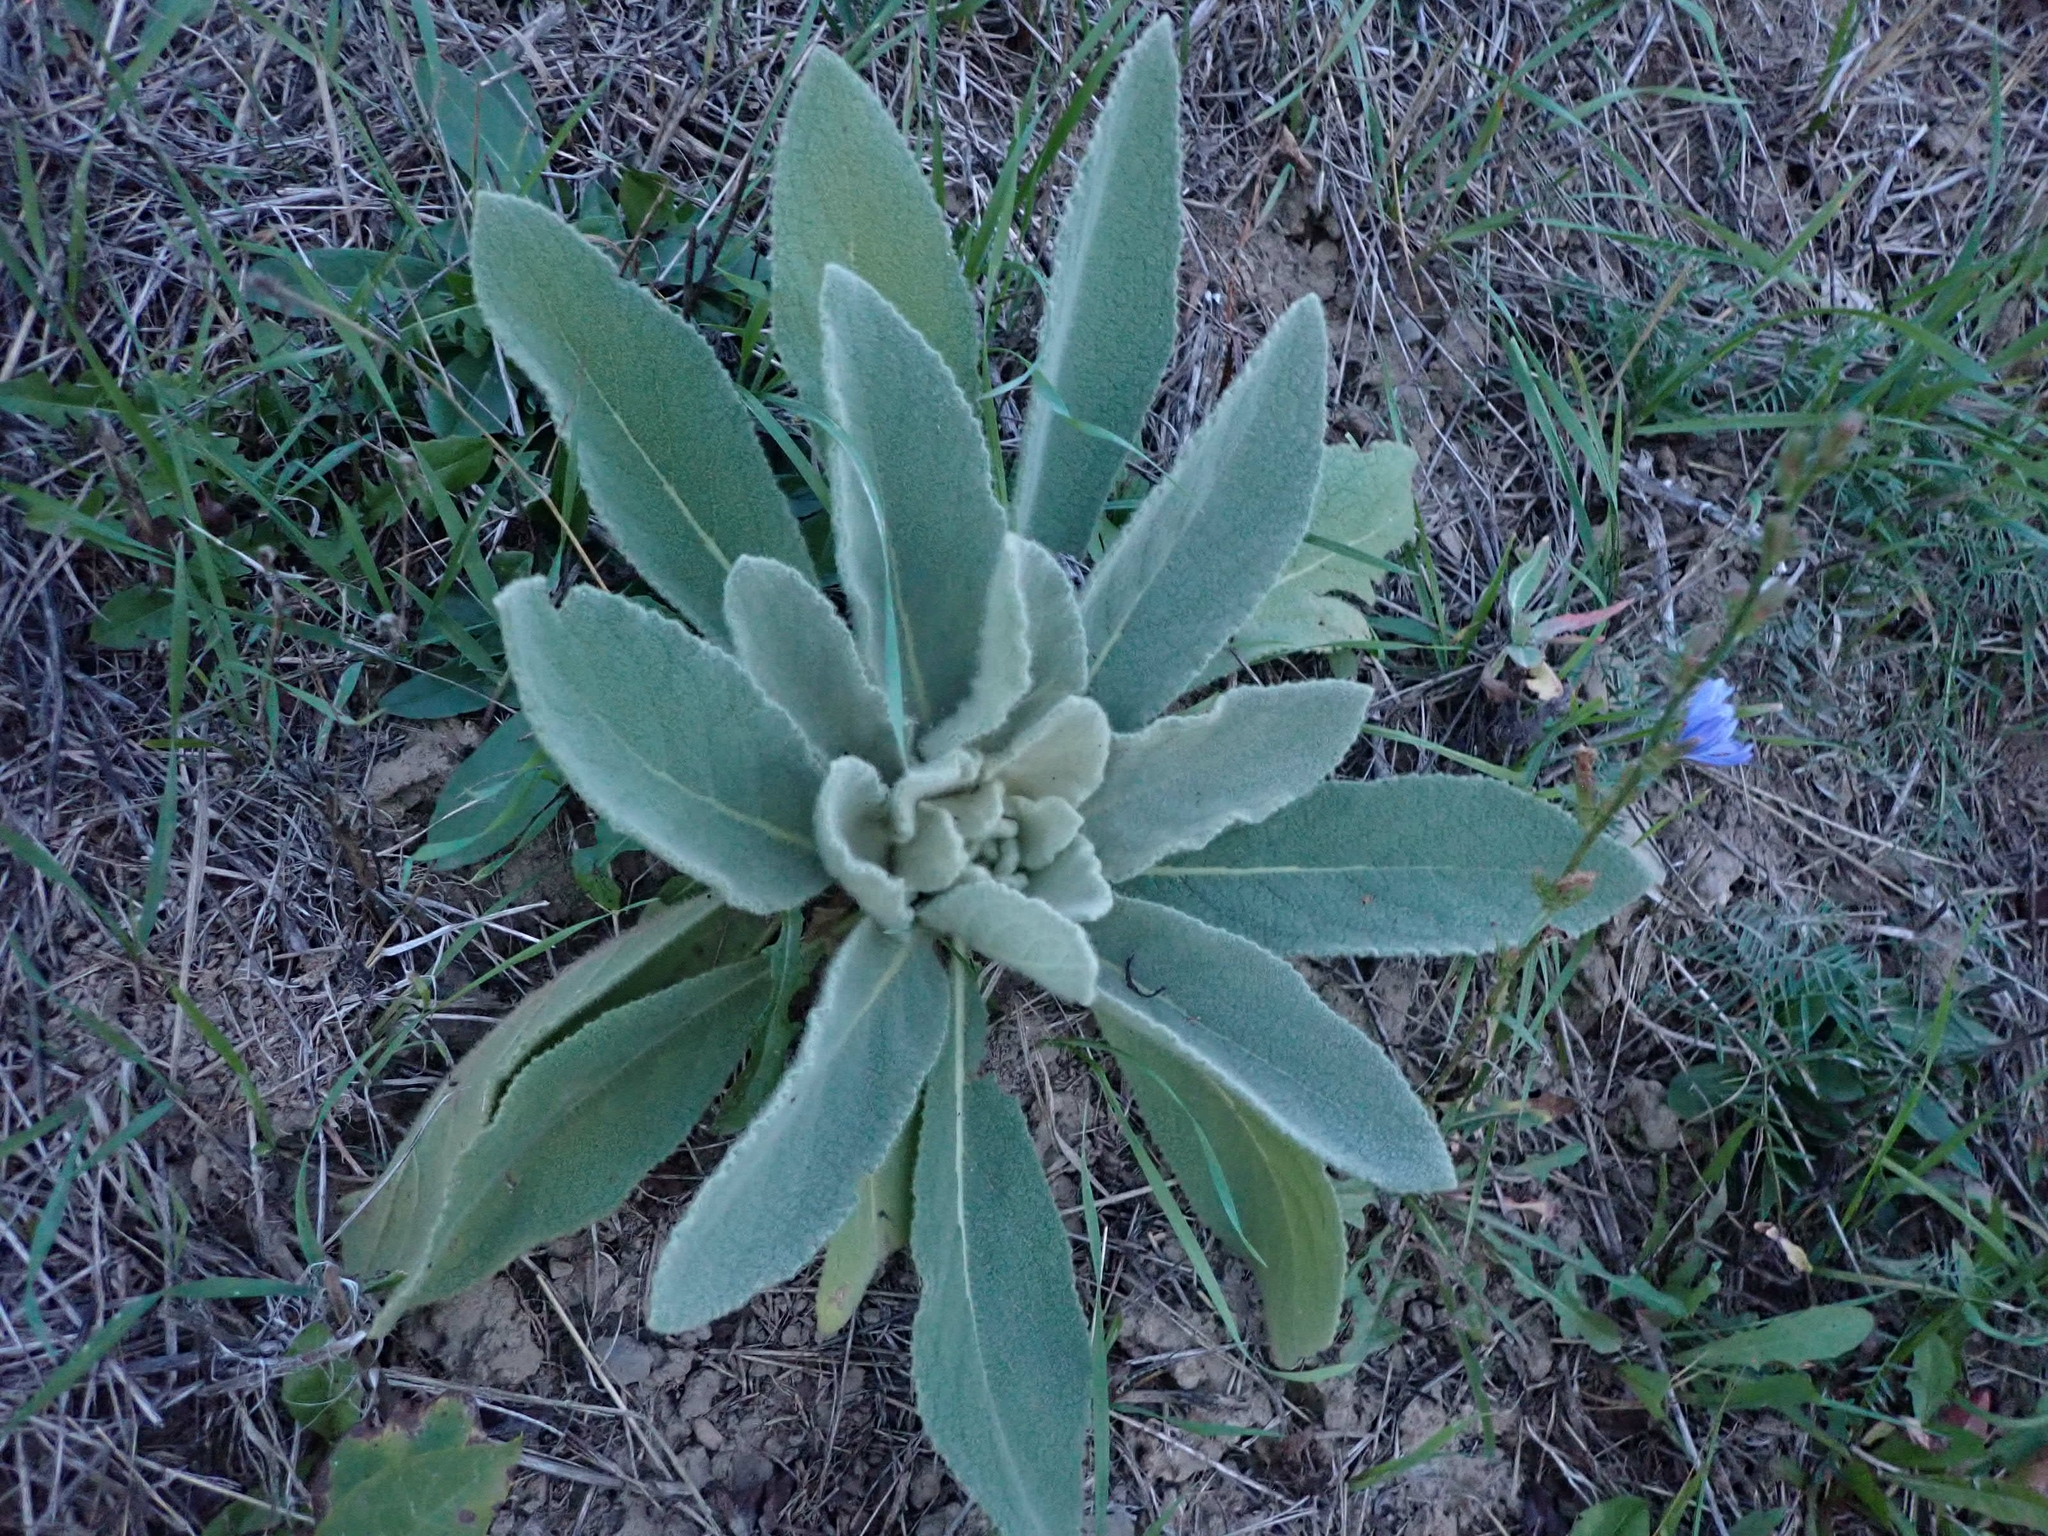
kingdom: Plantae
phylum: Tracheophyta
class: Magnoliopsida
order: Lamiales
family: Scrophulariaceae
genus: Verbascum
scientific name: Verbascum thapsus
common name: Common mullein
